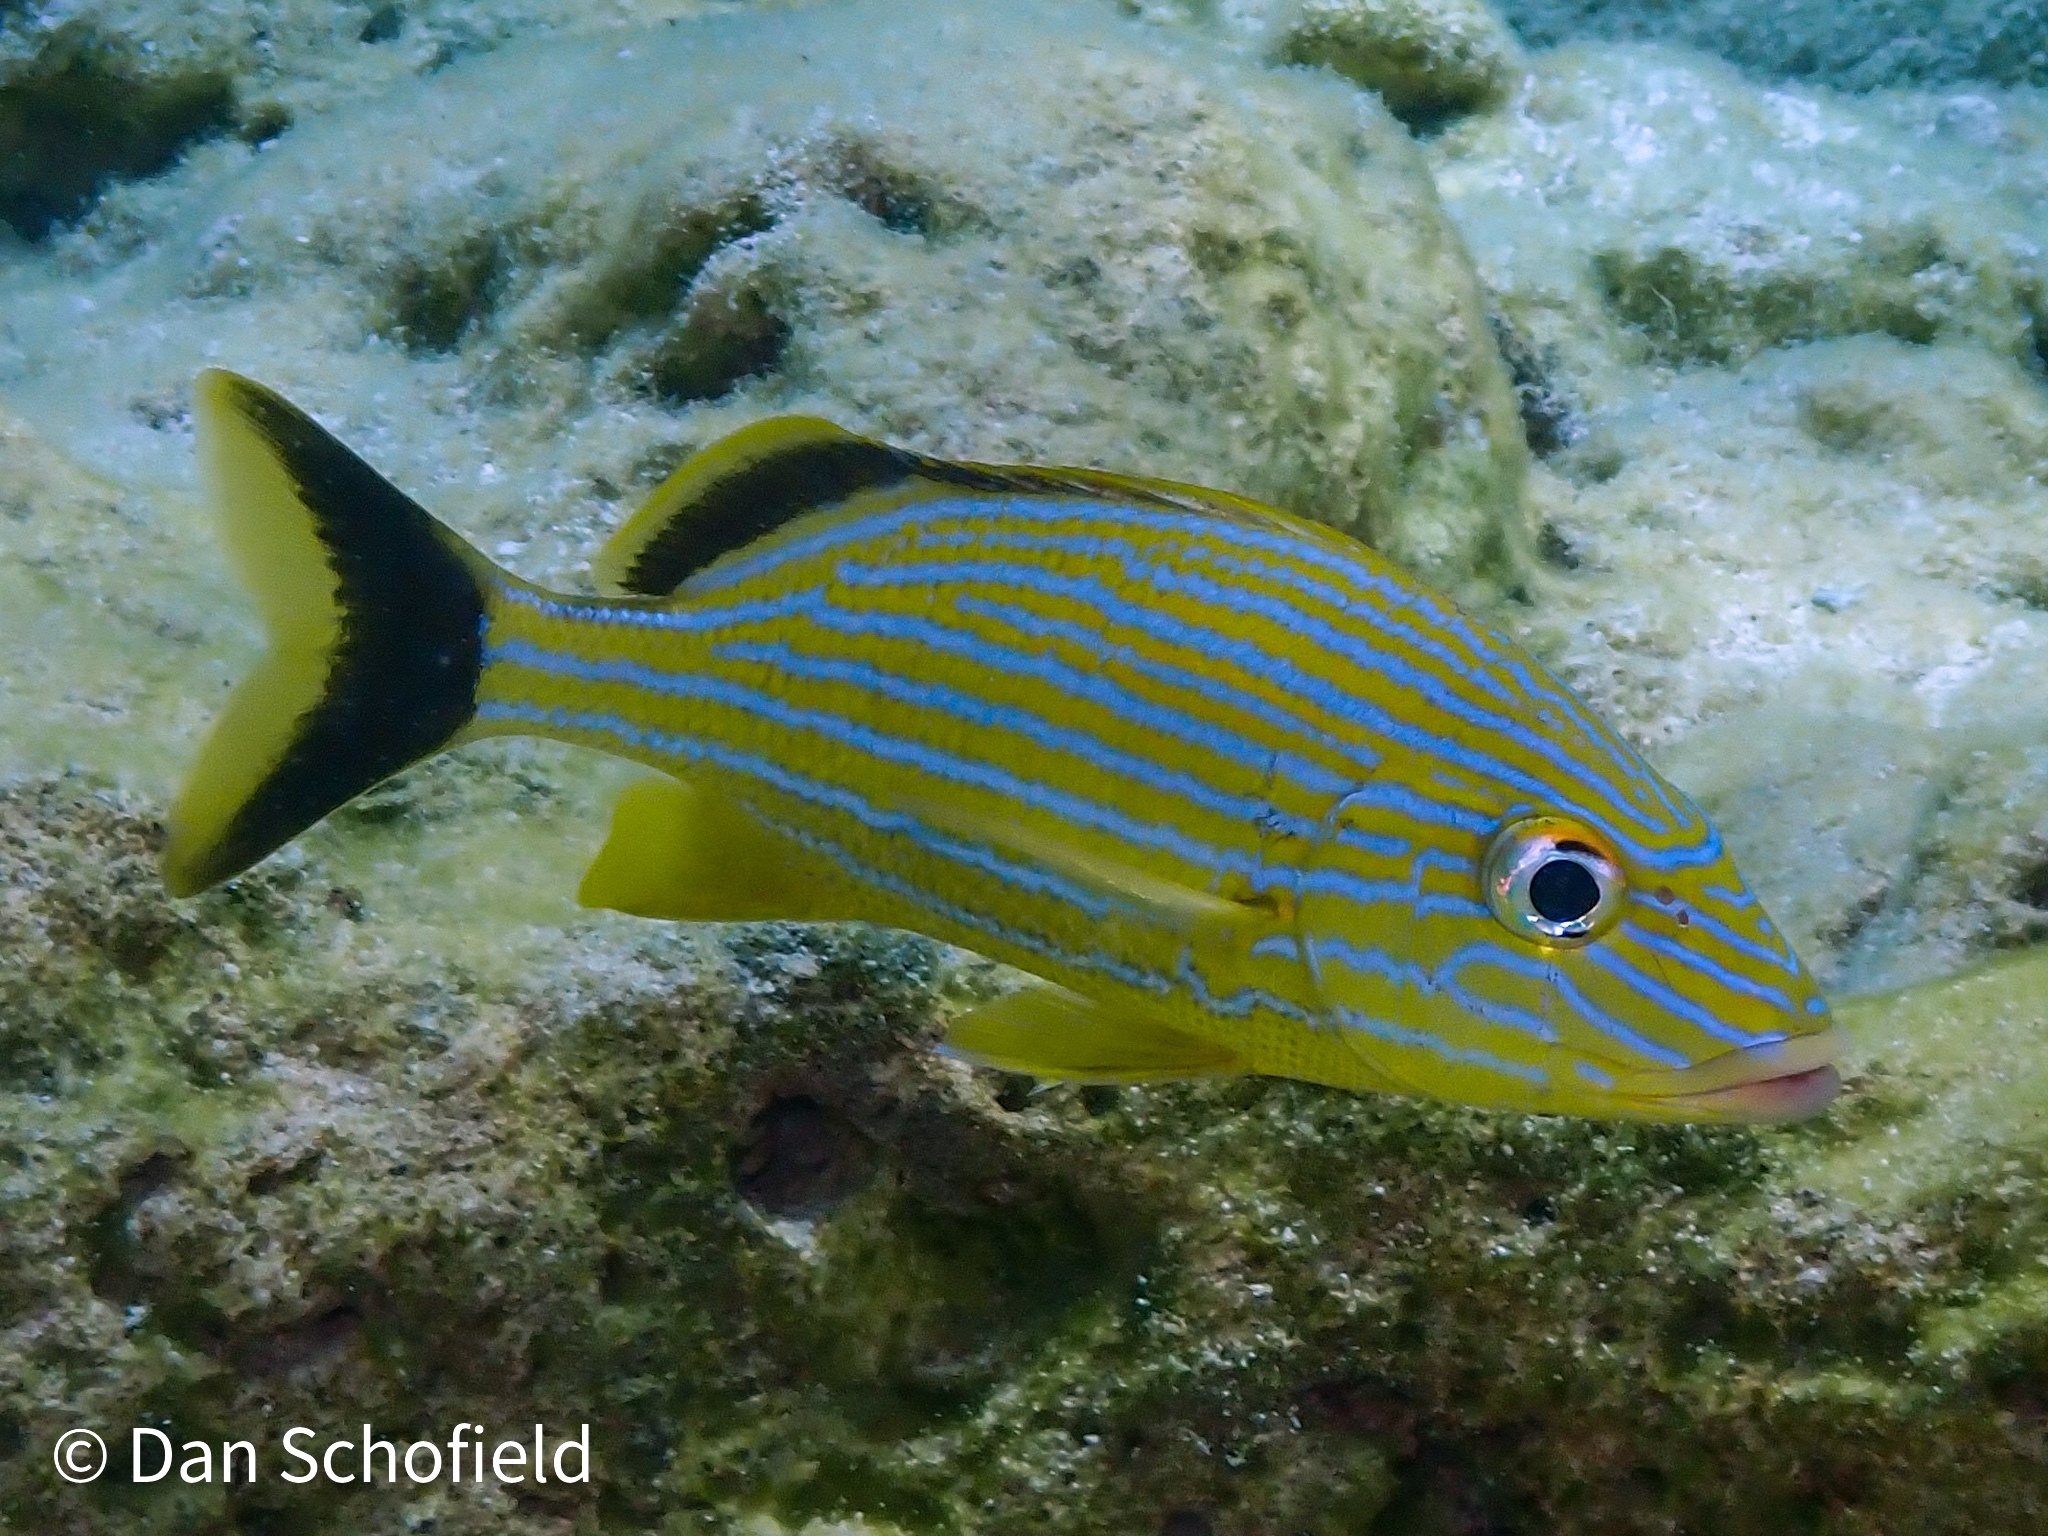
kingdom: Animalia
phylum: Chordata
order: Perciformes
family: Haemulidae
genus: Haemulon
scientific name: Haemulon sciurus
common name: Bluestriped grunt
